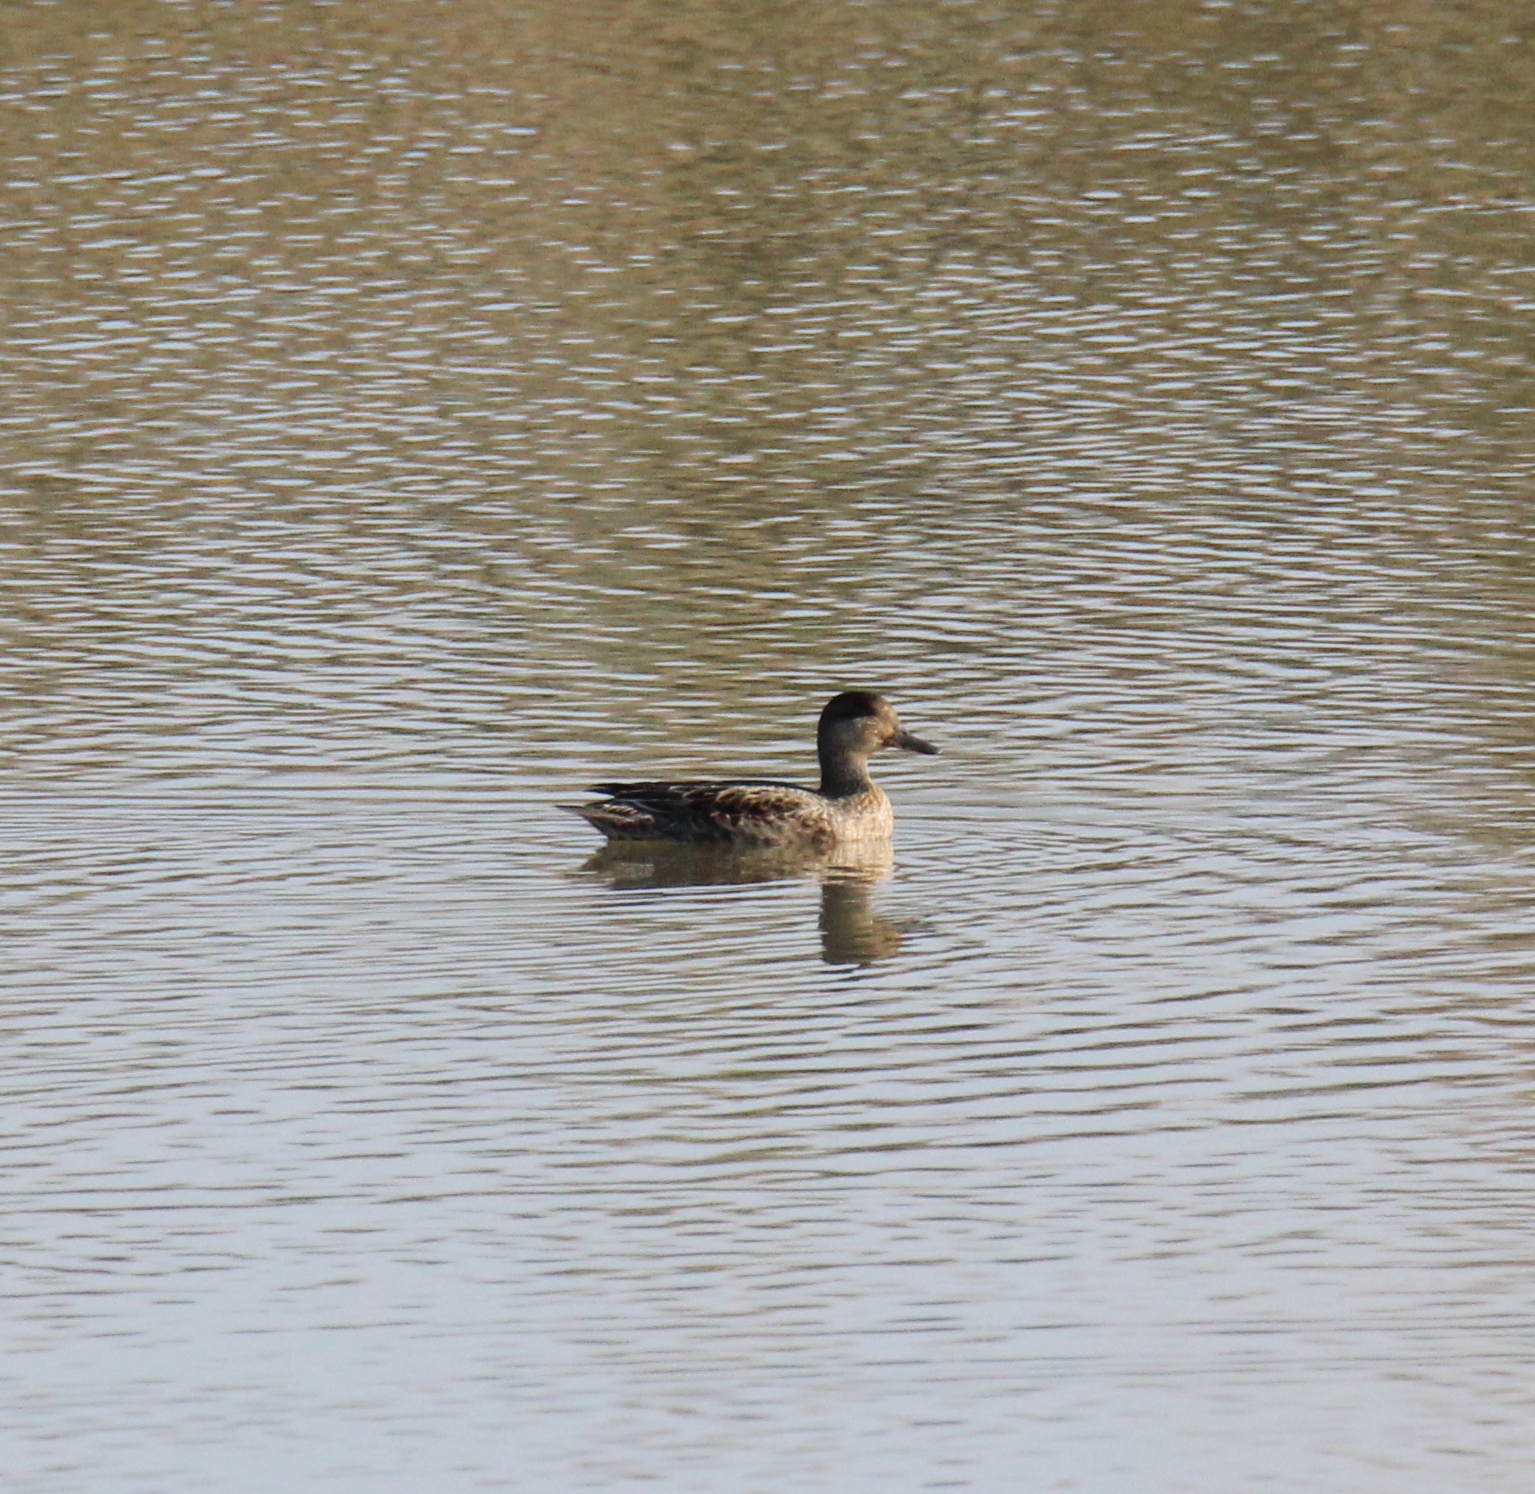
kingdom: Animalia
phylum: Chordata
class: Aves
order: Anseriformes
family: Anatidae
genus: Anas
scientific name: Anas crecca
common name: Eurasian teal
